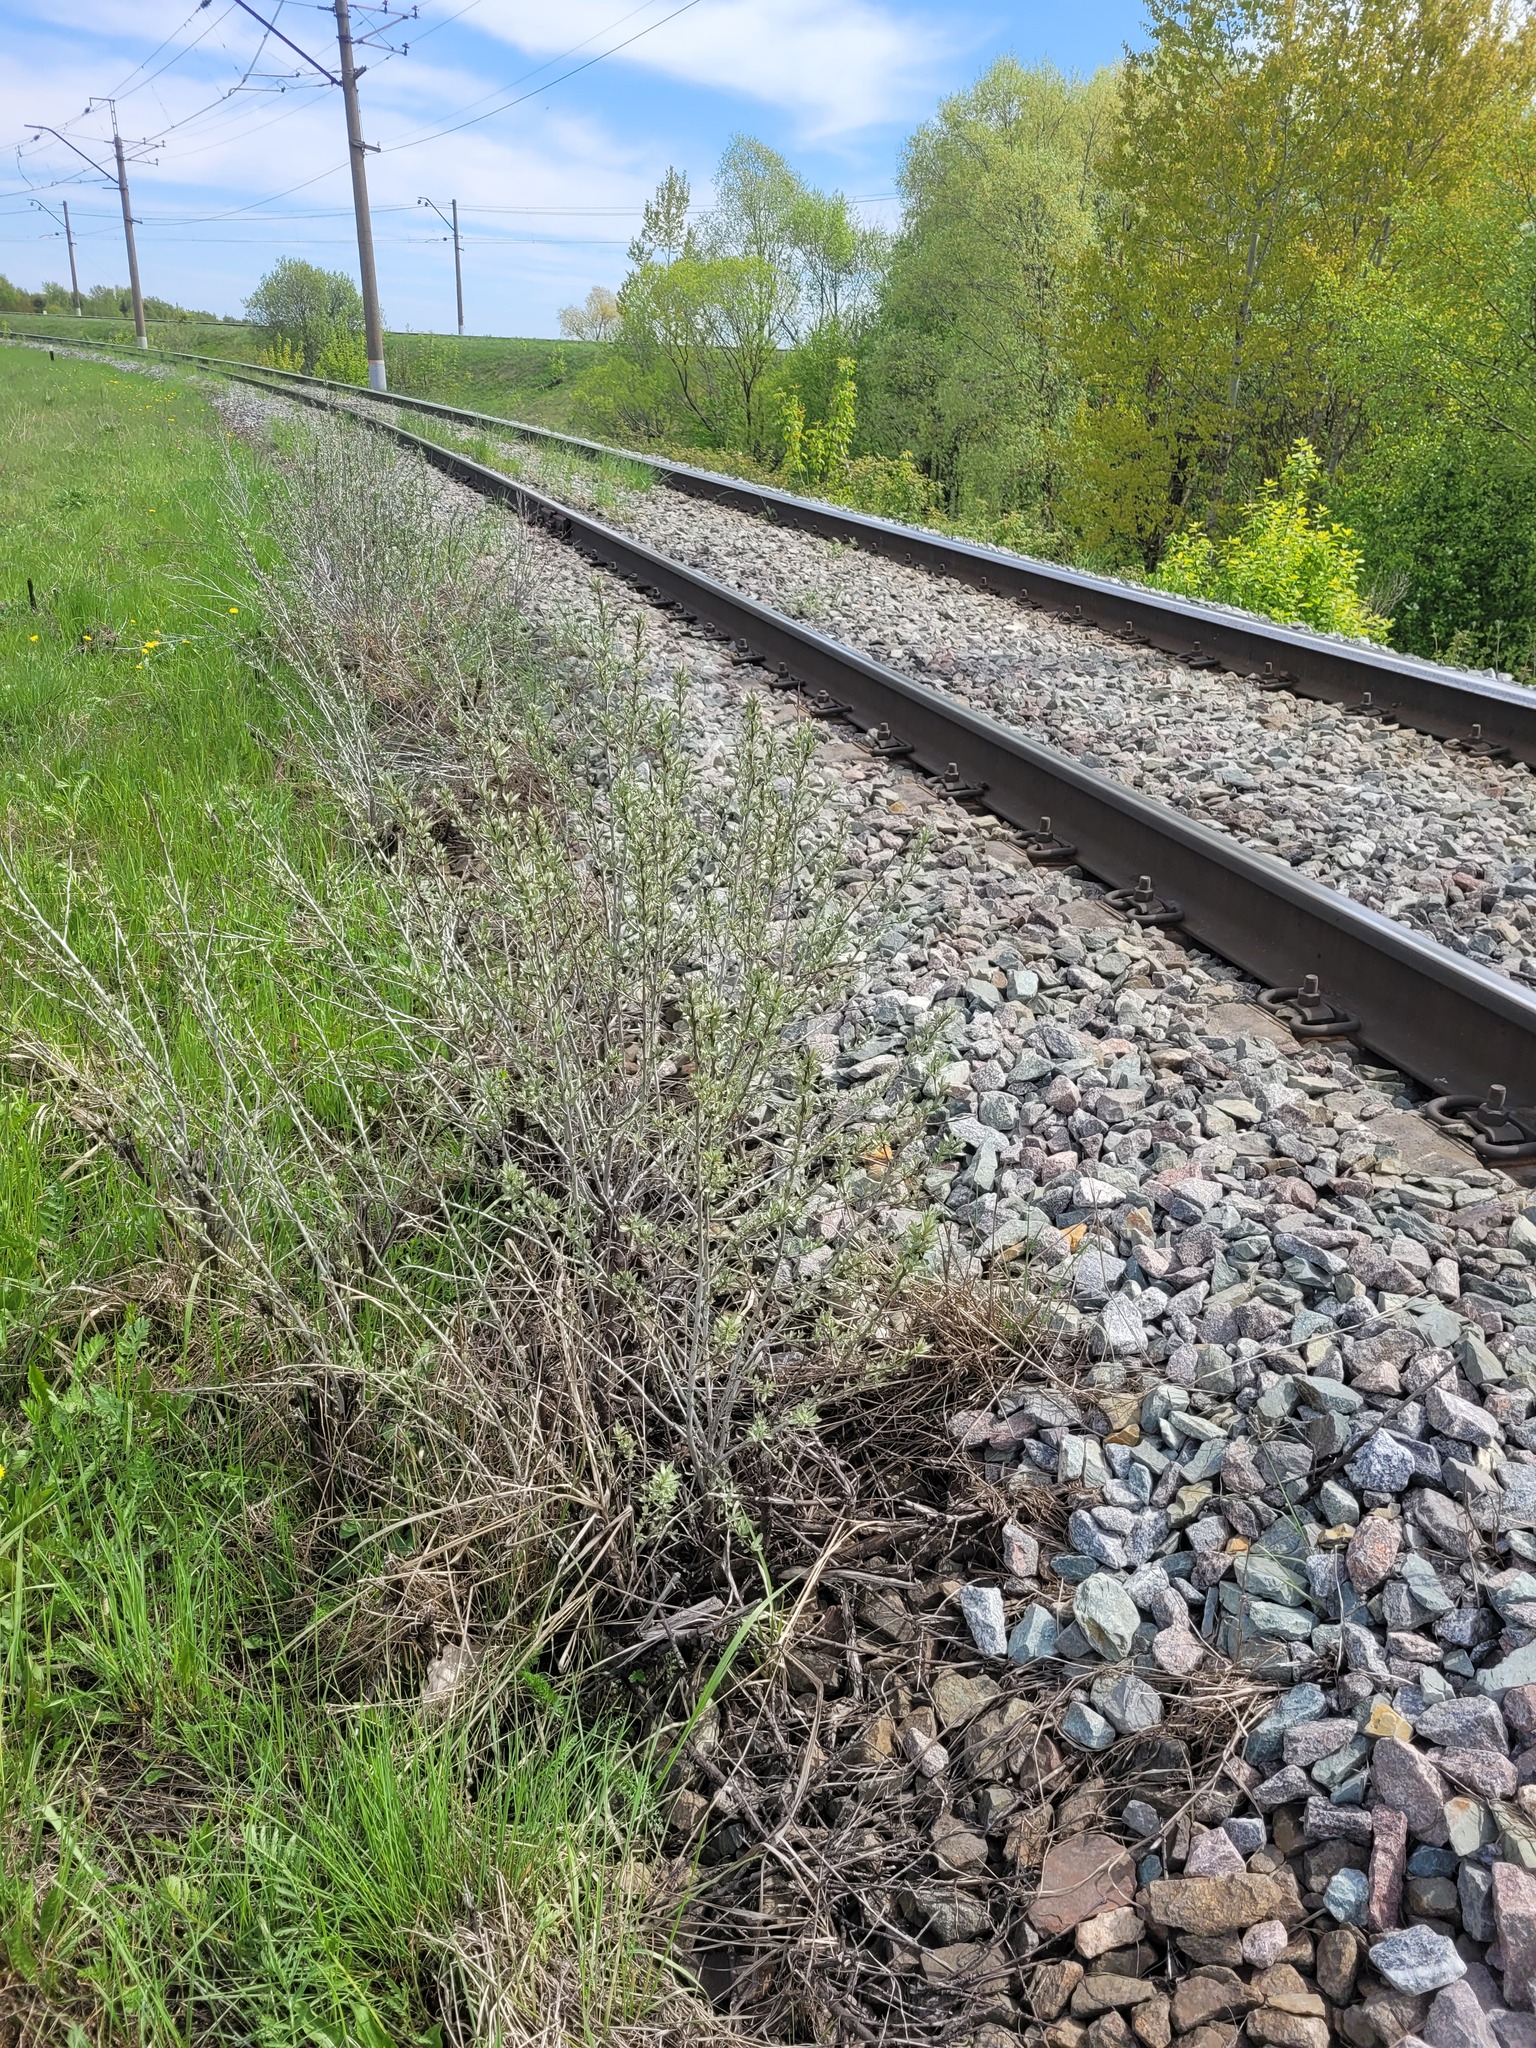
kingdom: Plantae
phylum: Tracheophyta
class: Magnoliopsida
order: Rosales
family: Elaeagnaceae
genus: Hippophae
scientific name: Hippophae rhamnoides
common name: Sea-buckthorn
